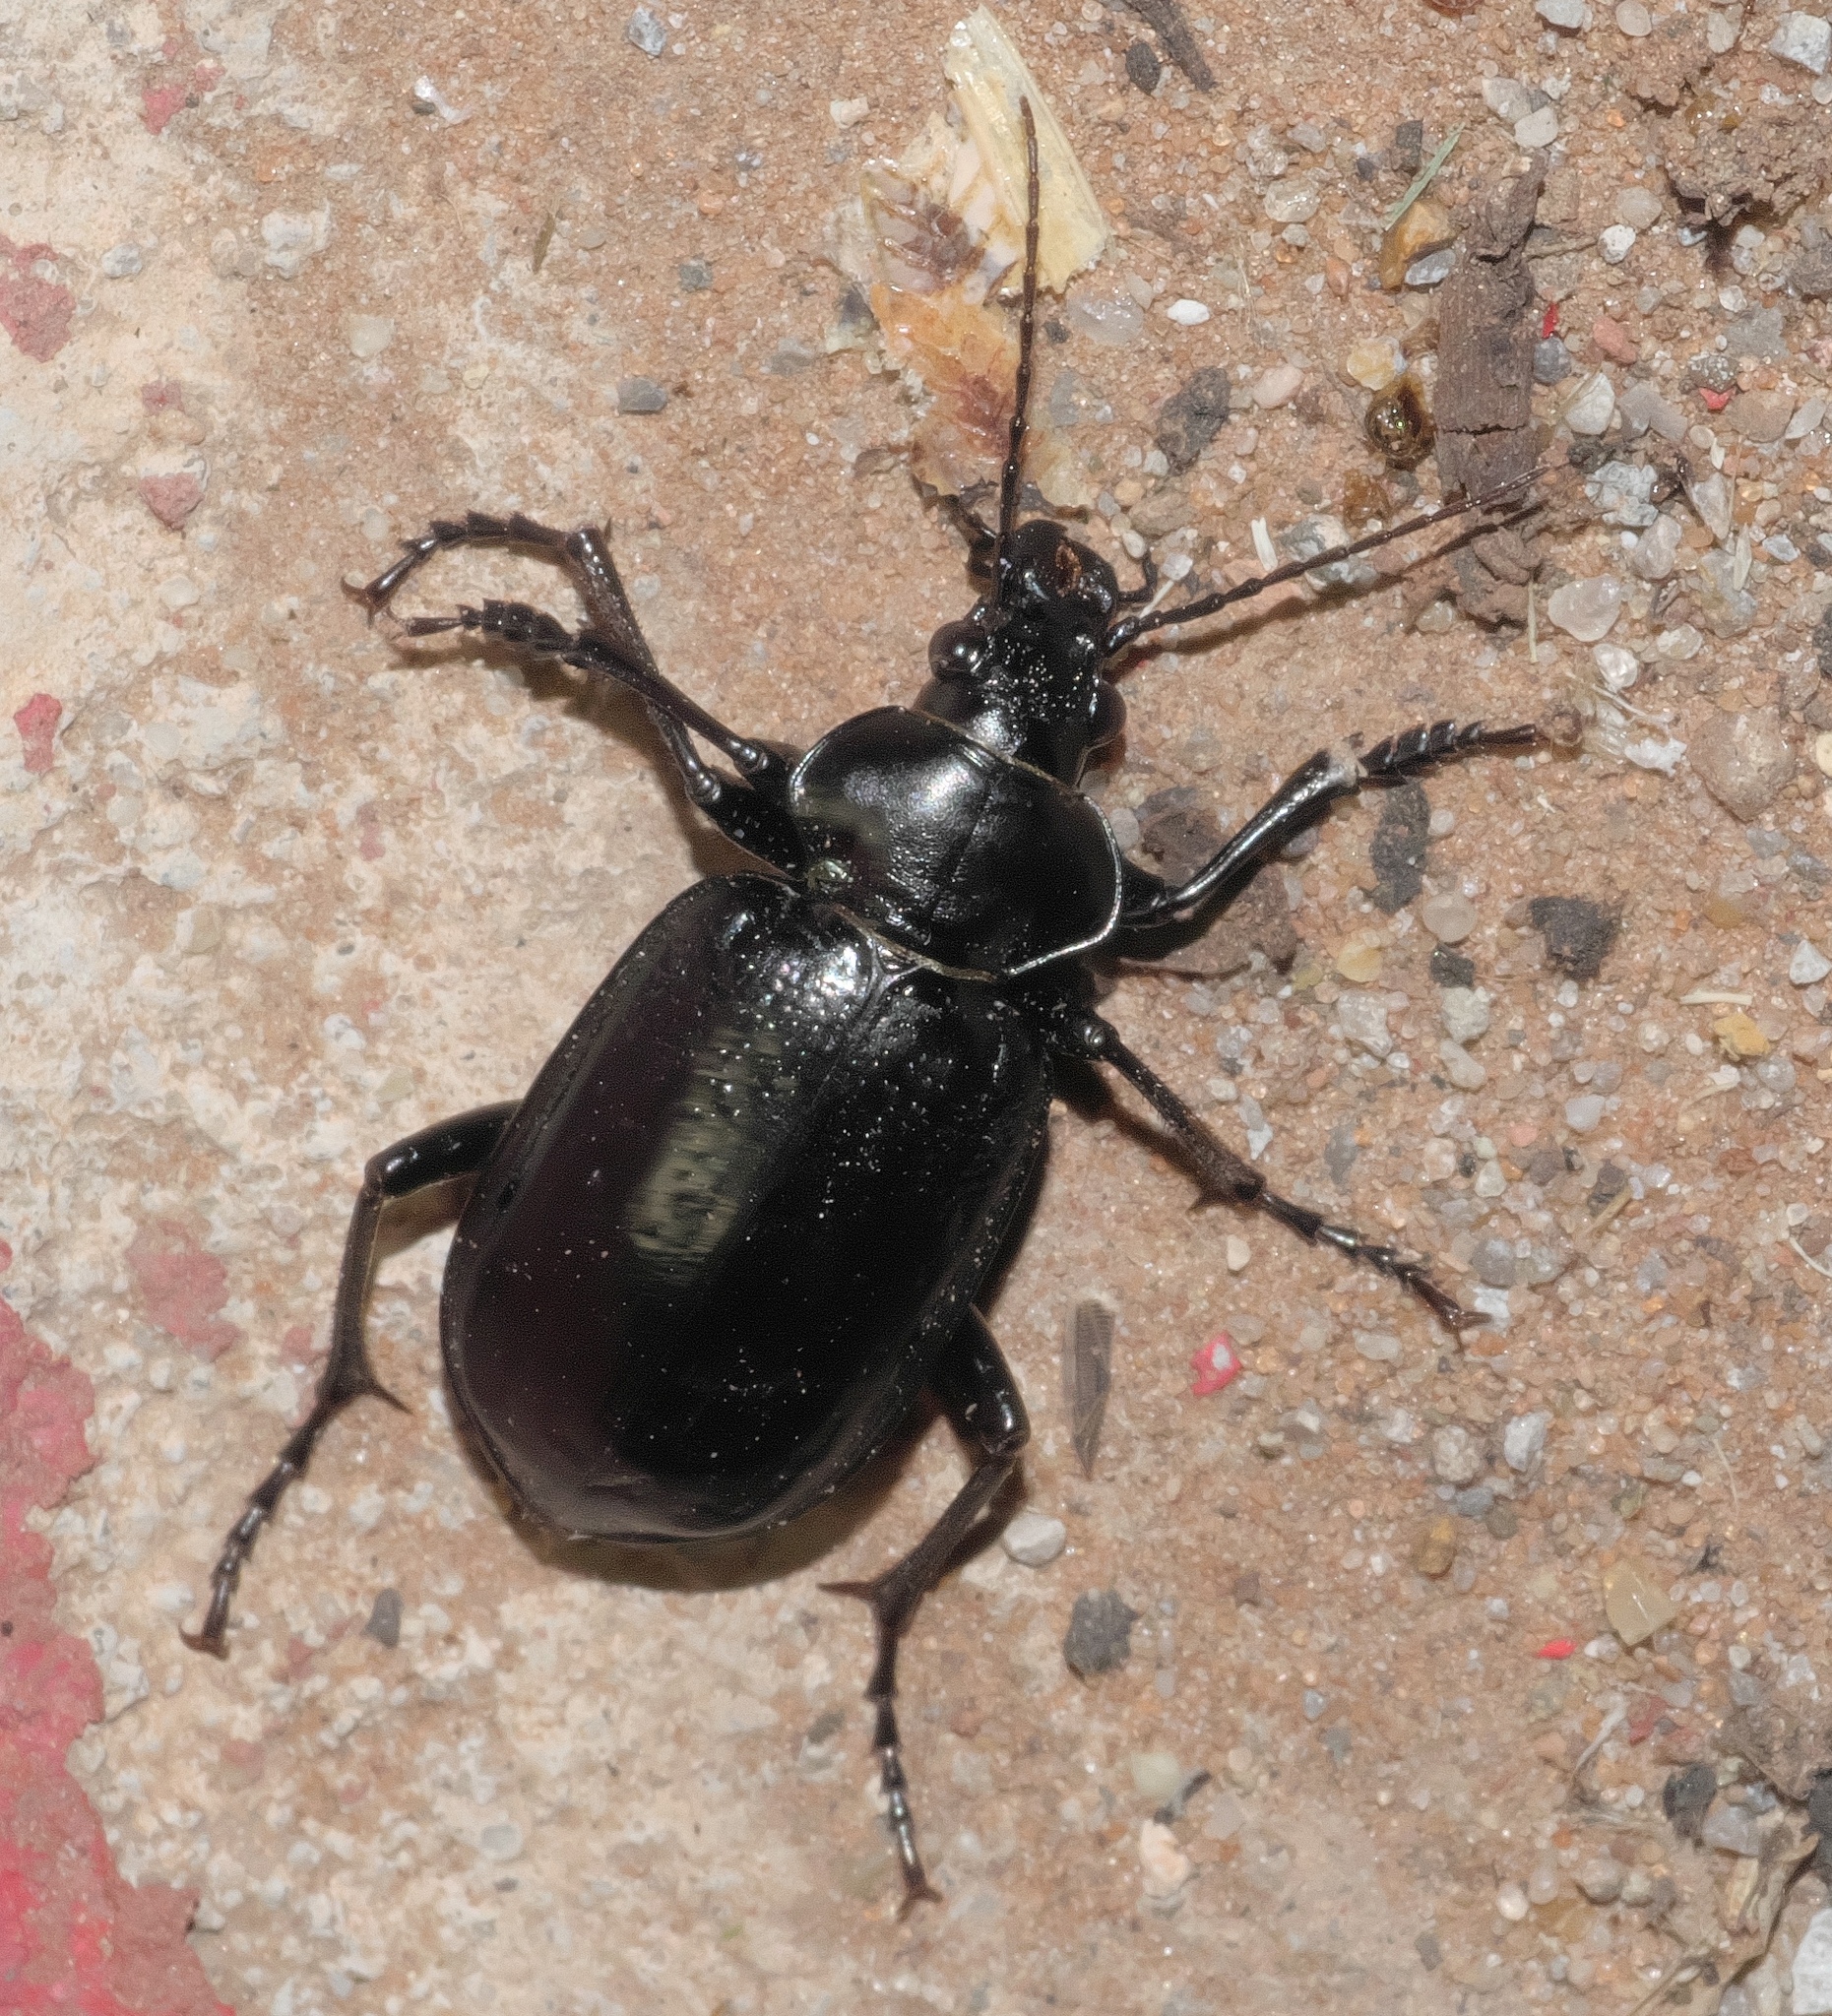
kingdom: Animalia
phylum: Arthropoda
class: Insecta
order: Coleoptera
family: Carabidae
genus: Calosoma
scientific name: Calosoma marginale
